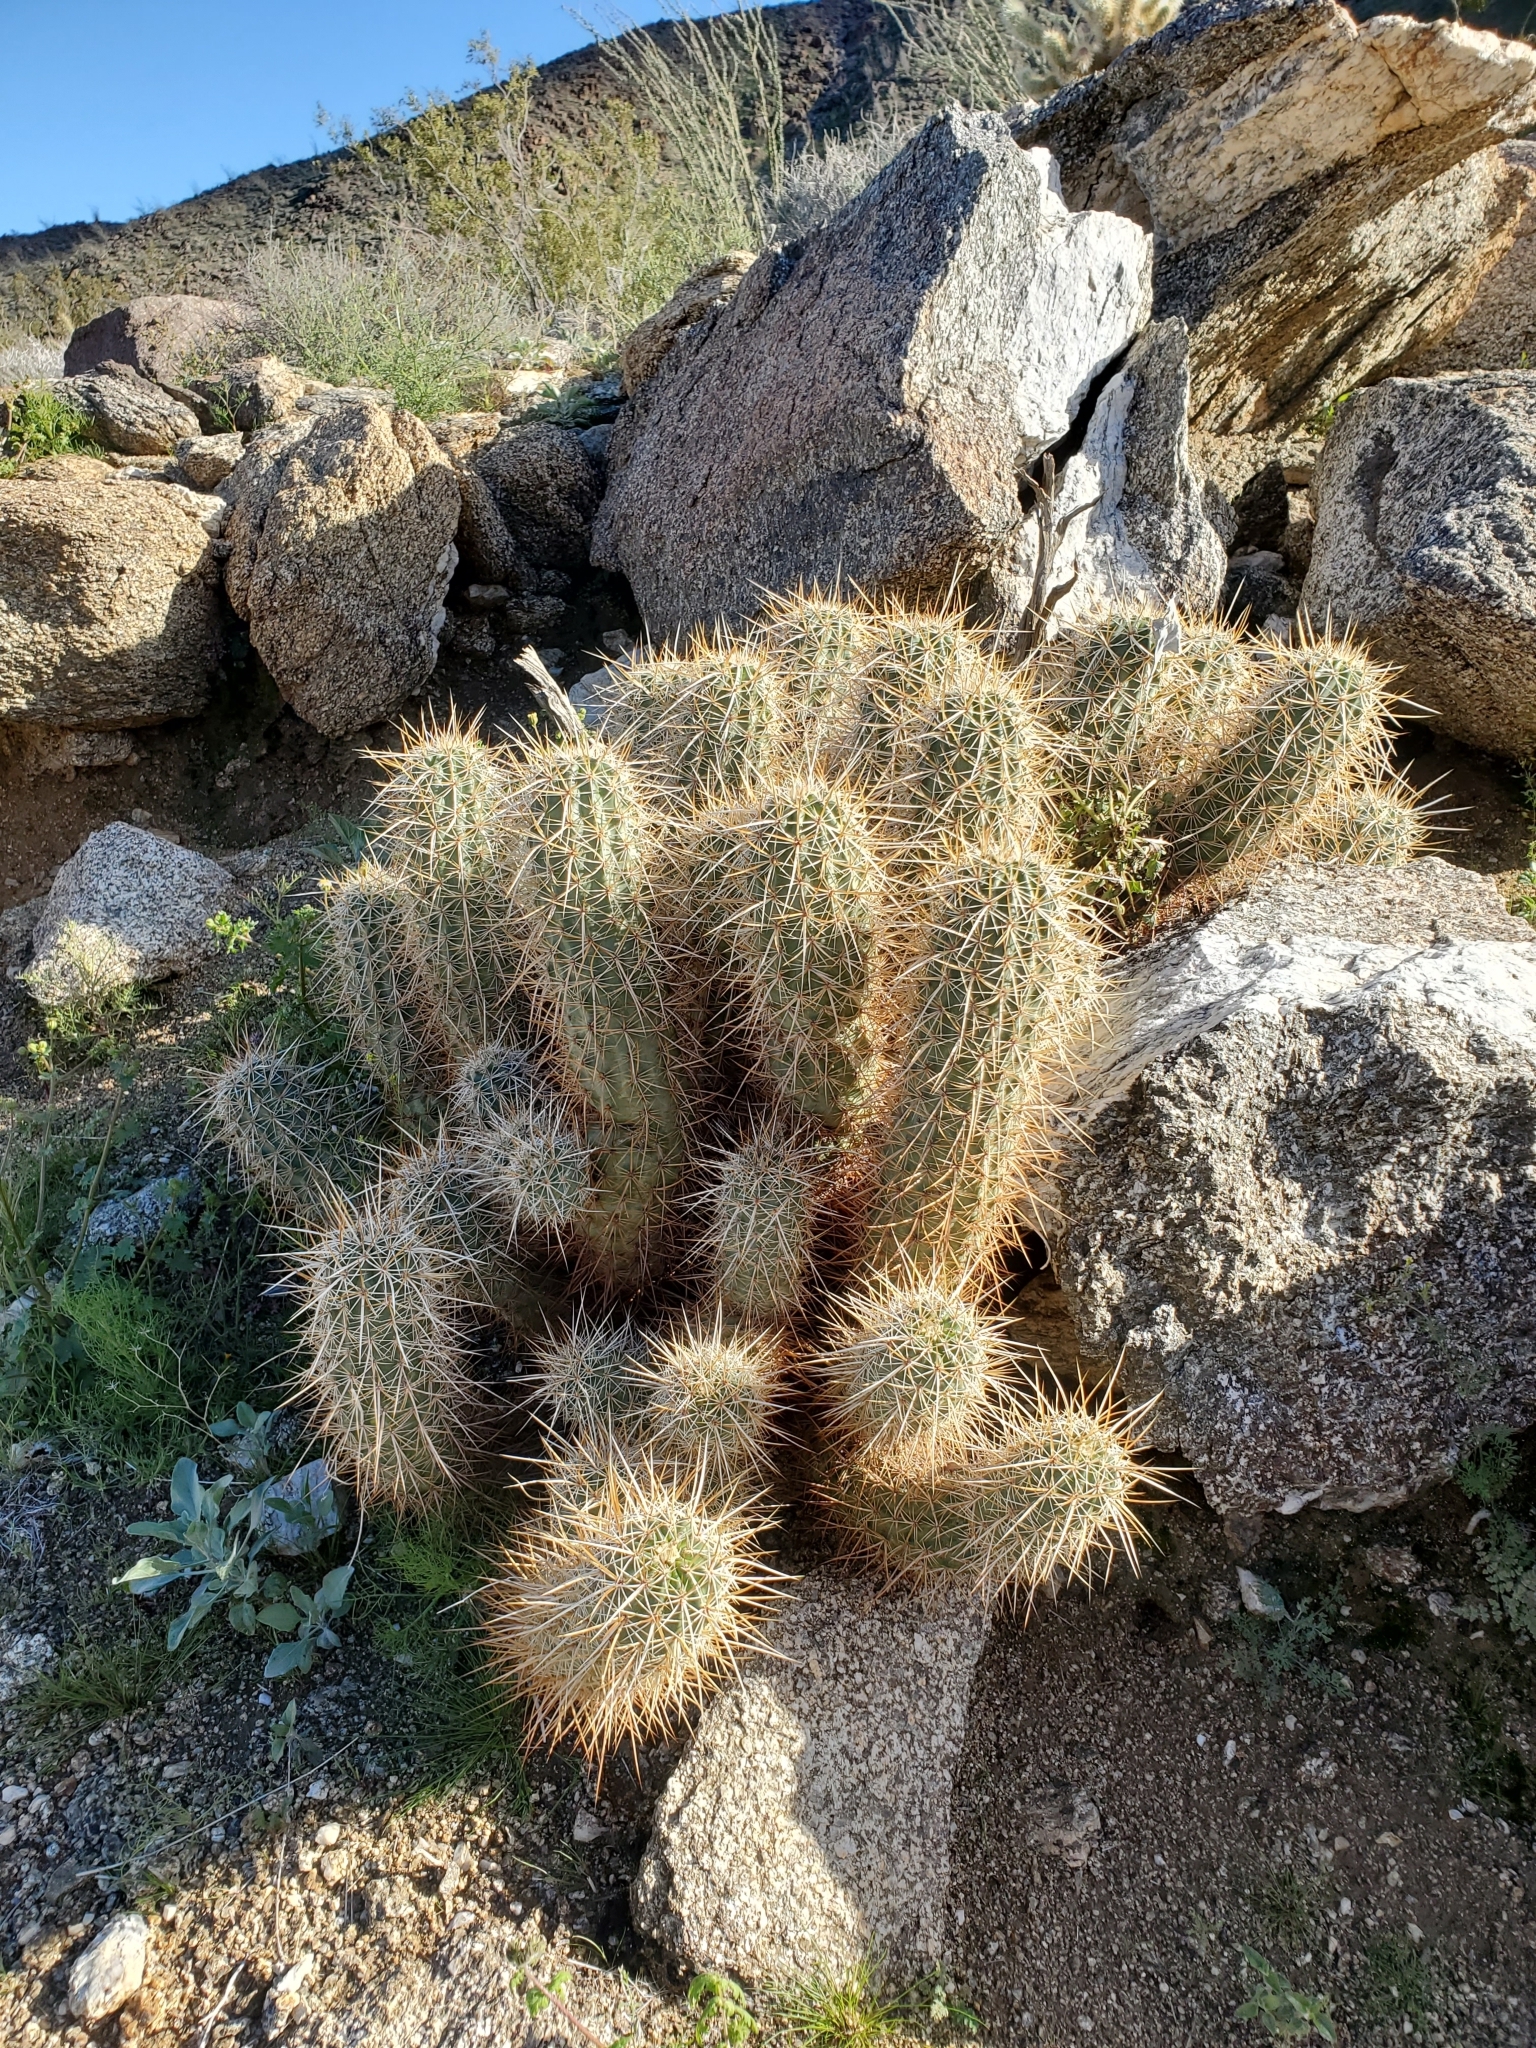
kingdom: Plantae
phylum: Tracheophyta
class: Magnoliopsida
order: Caryophyllales
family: Cactaceae
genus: Echinocereus
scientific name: Echinocereus engelmannii
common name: Engelmann's hedgehog cactus
